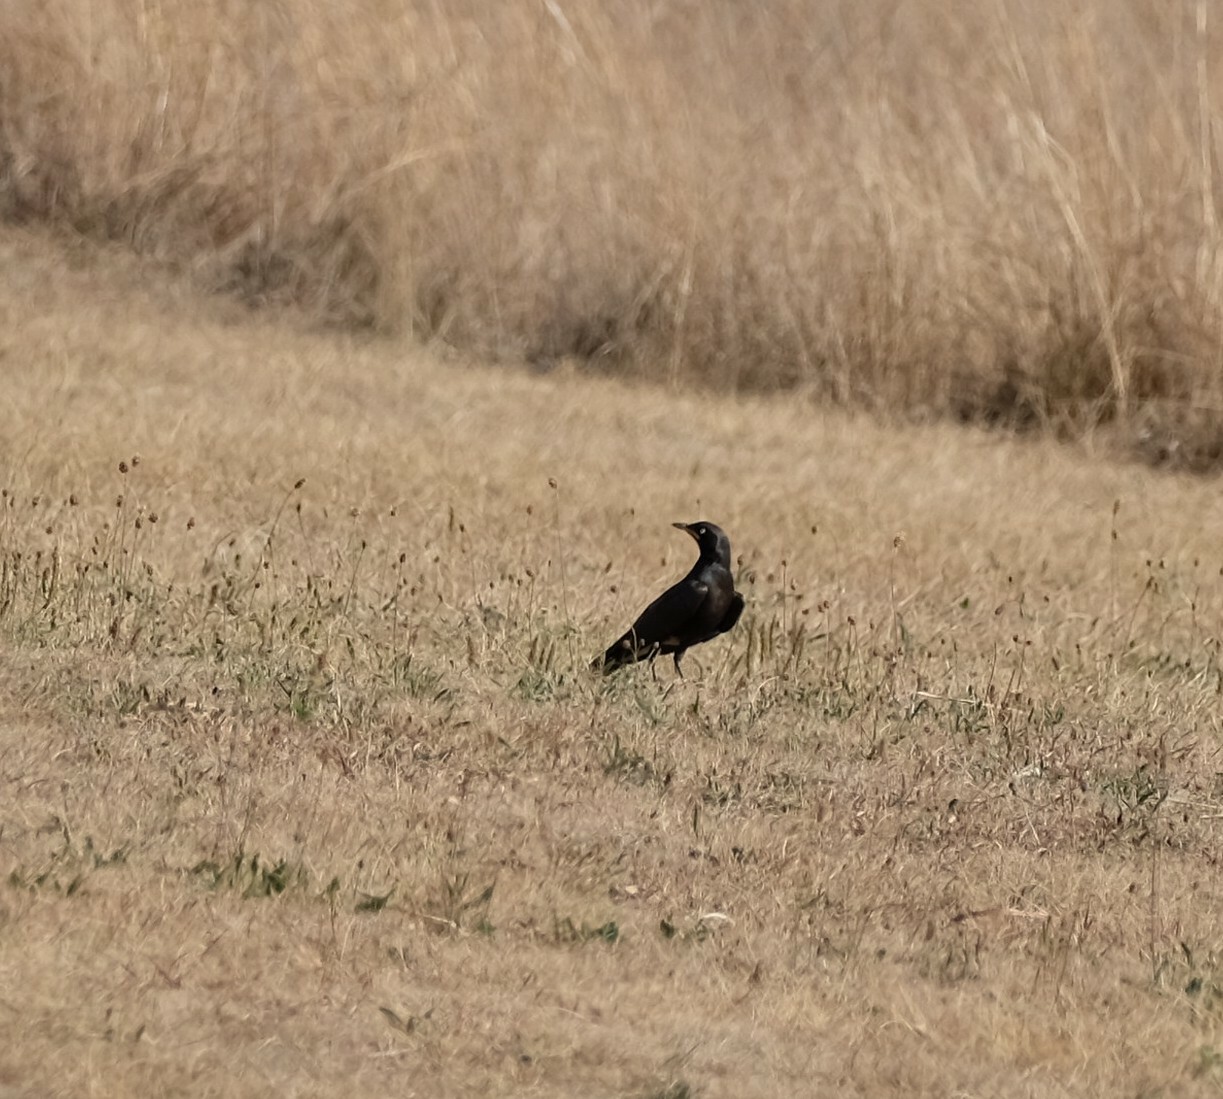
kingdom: Animalia
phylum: Chordata
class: Aves
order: Passeriformes
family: Sturnidae
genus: Lamprotornis
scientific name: Lamprotornis bicolor
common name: Pied starling
